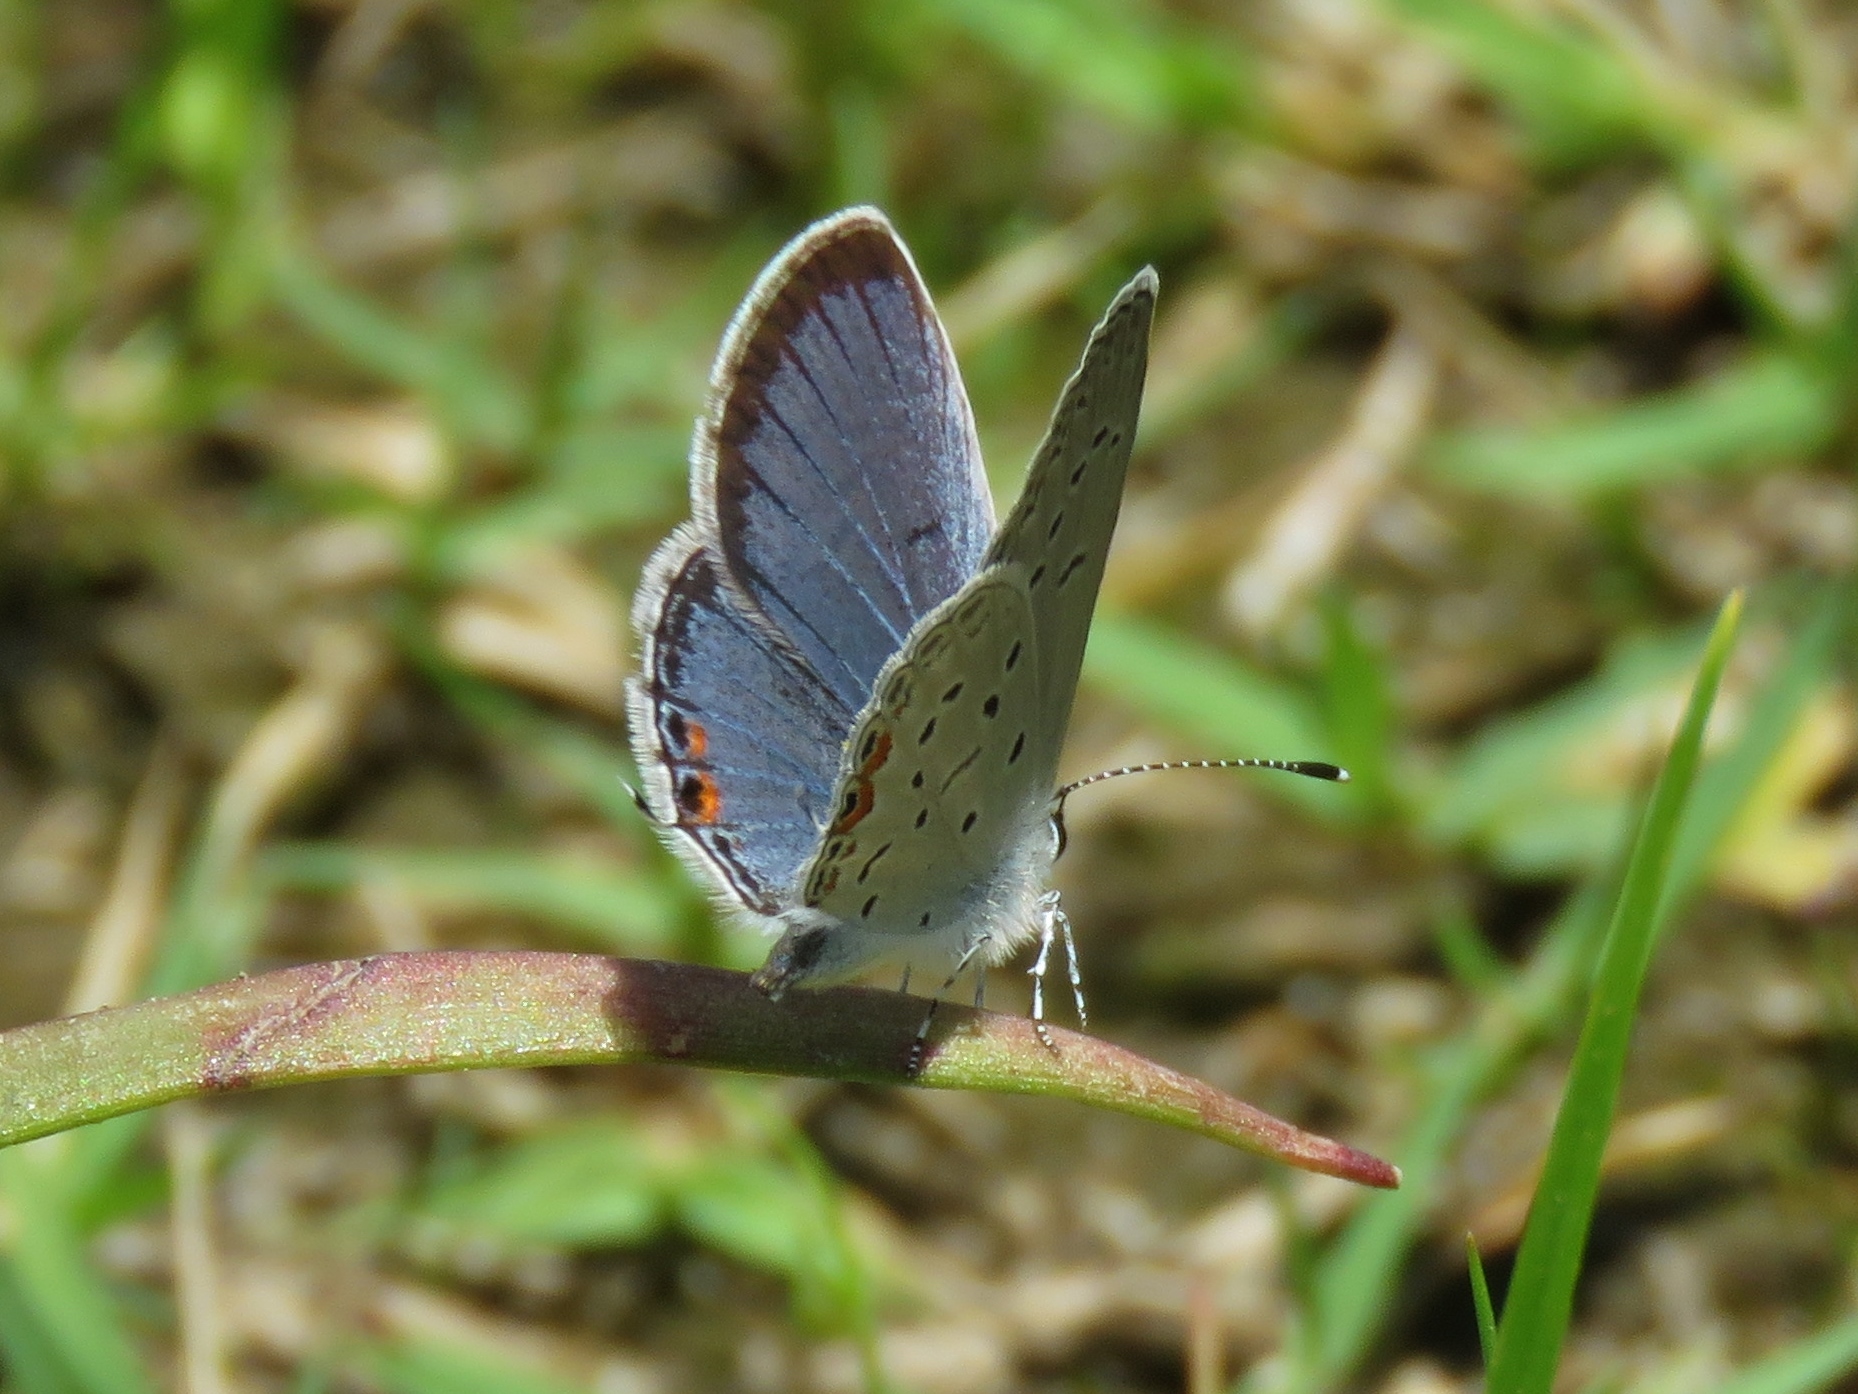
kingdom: Animalia
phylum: Arthropoda
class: Insecta
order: Lepidoptera
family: Lycaenidae
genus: Elkalyce
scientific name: Elkalyce comyntas
